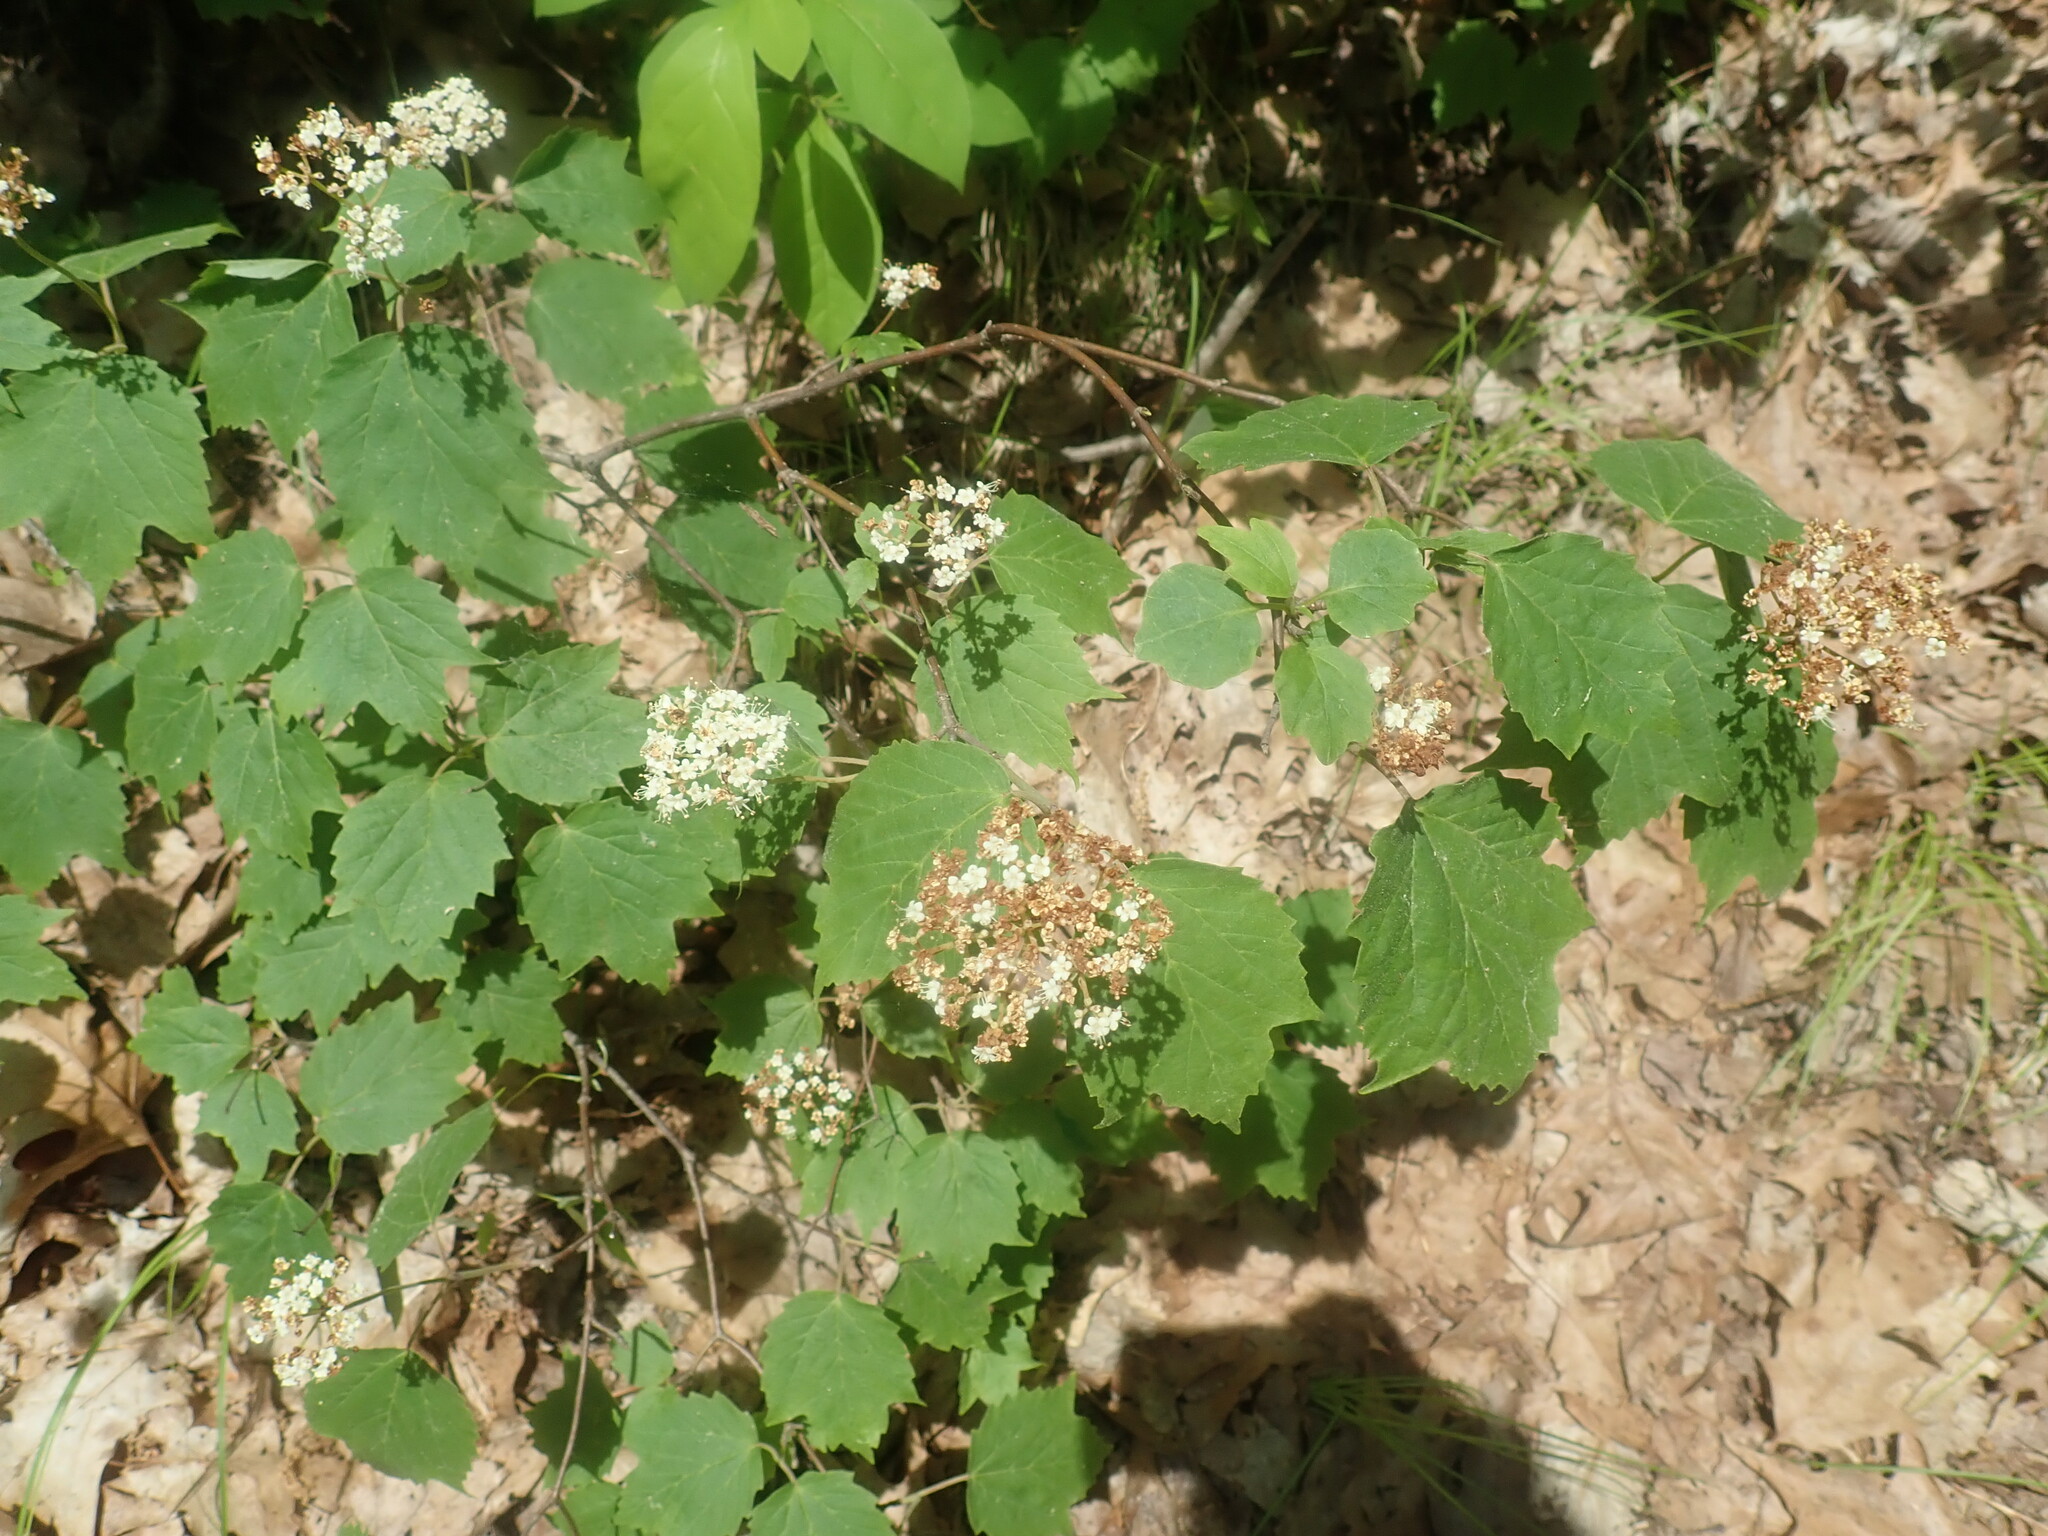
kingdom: Plantae
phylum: Tracheophyta
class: Magnoliopsida
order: Dipsacales
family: Viburnaceae
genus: Viburnum
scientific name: Viburnum acerifolium
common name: Dockmackie
